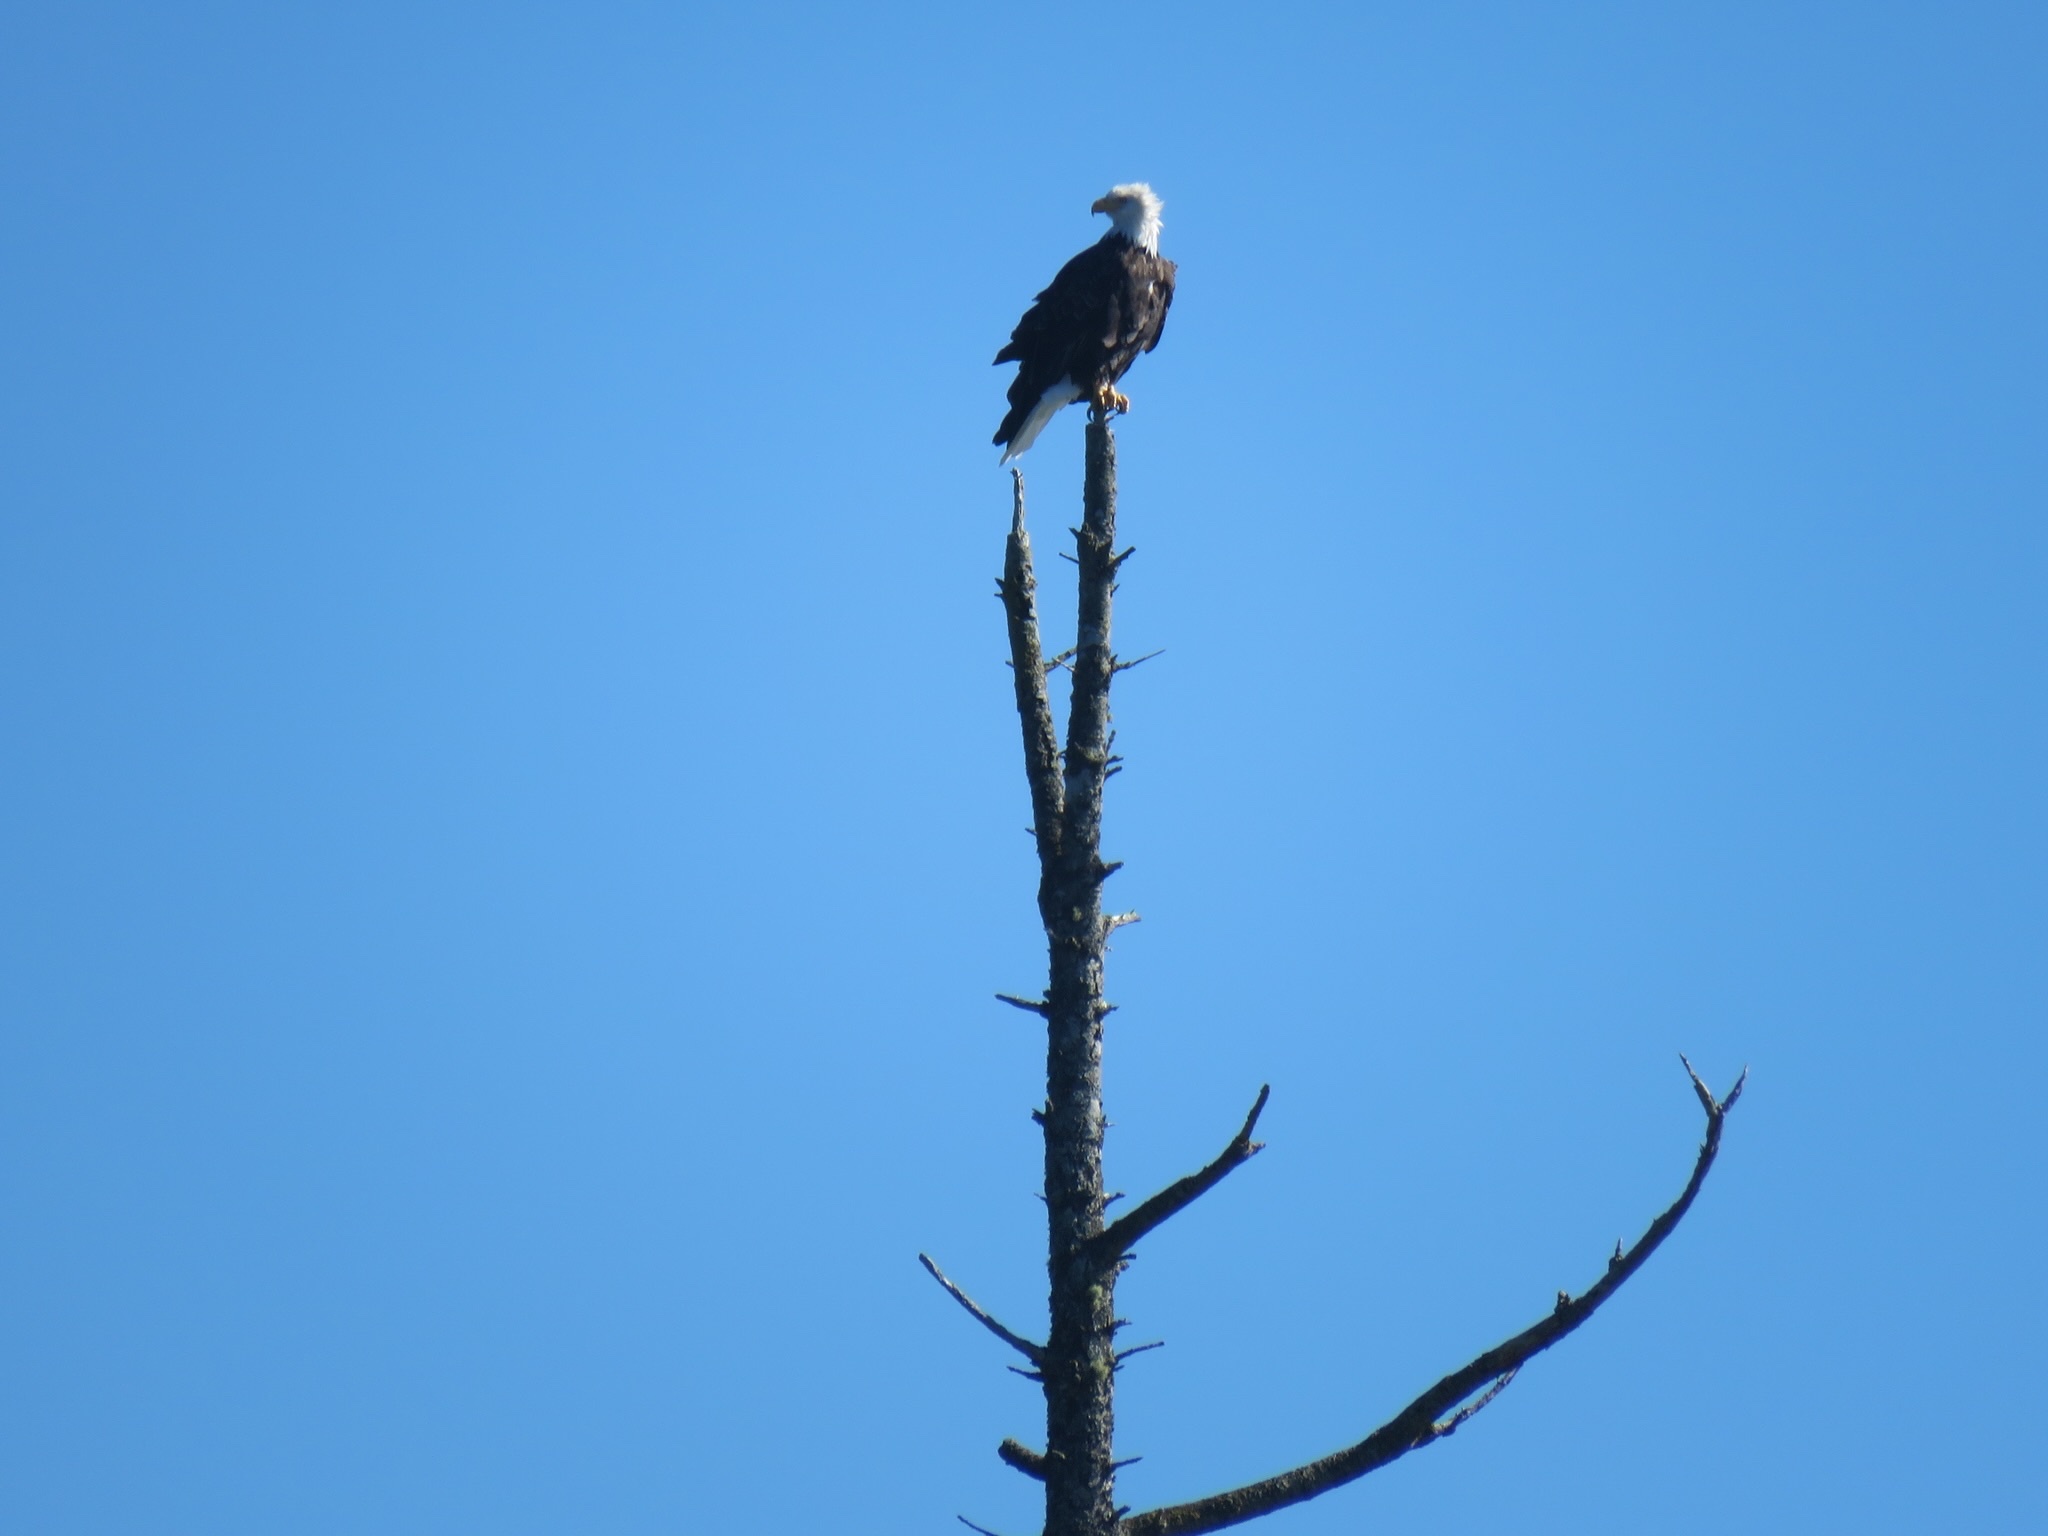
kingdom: Animalia
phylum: Chordata
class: Aves
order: Accipitriformes
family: Accipitridae
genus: Haliaeetus
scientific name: Haliaeetus leucocephalus
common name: Bald eagle
